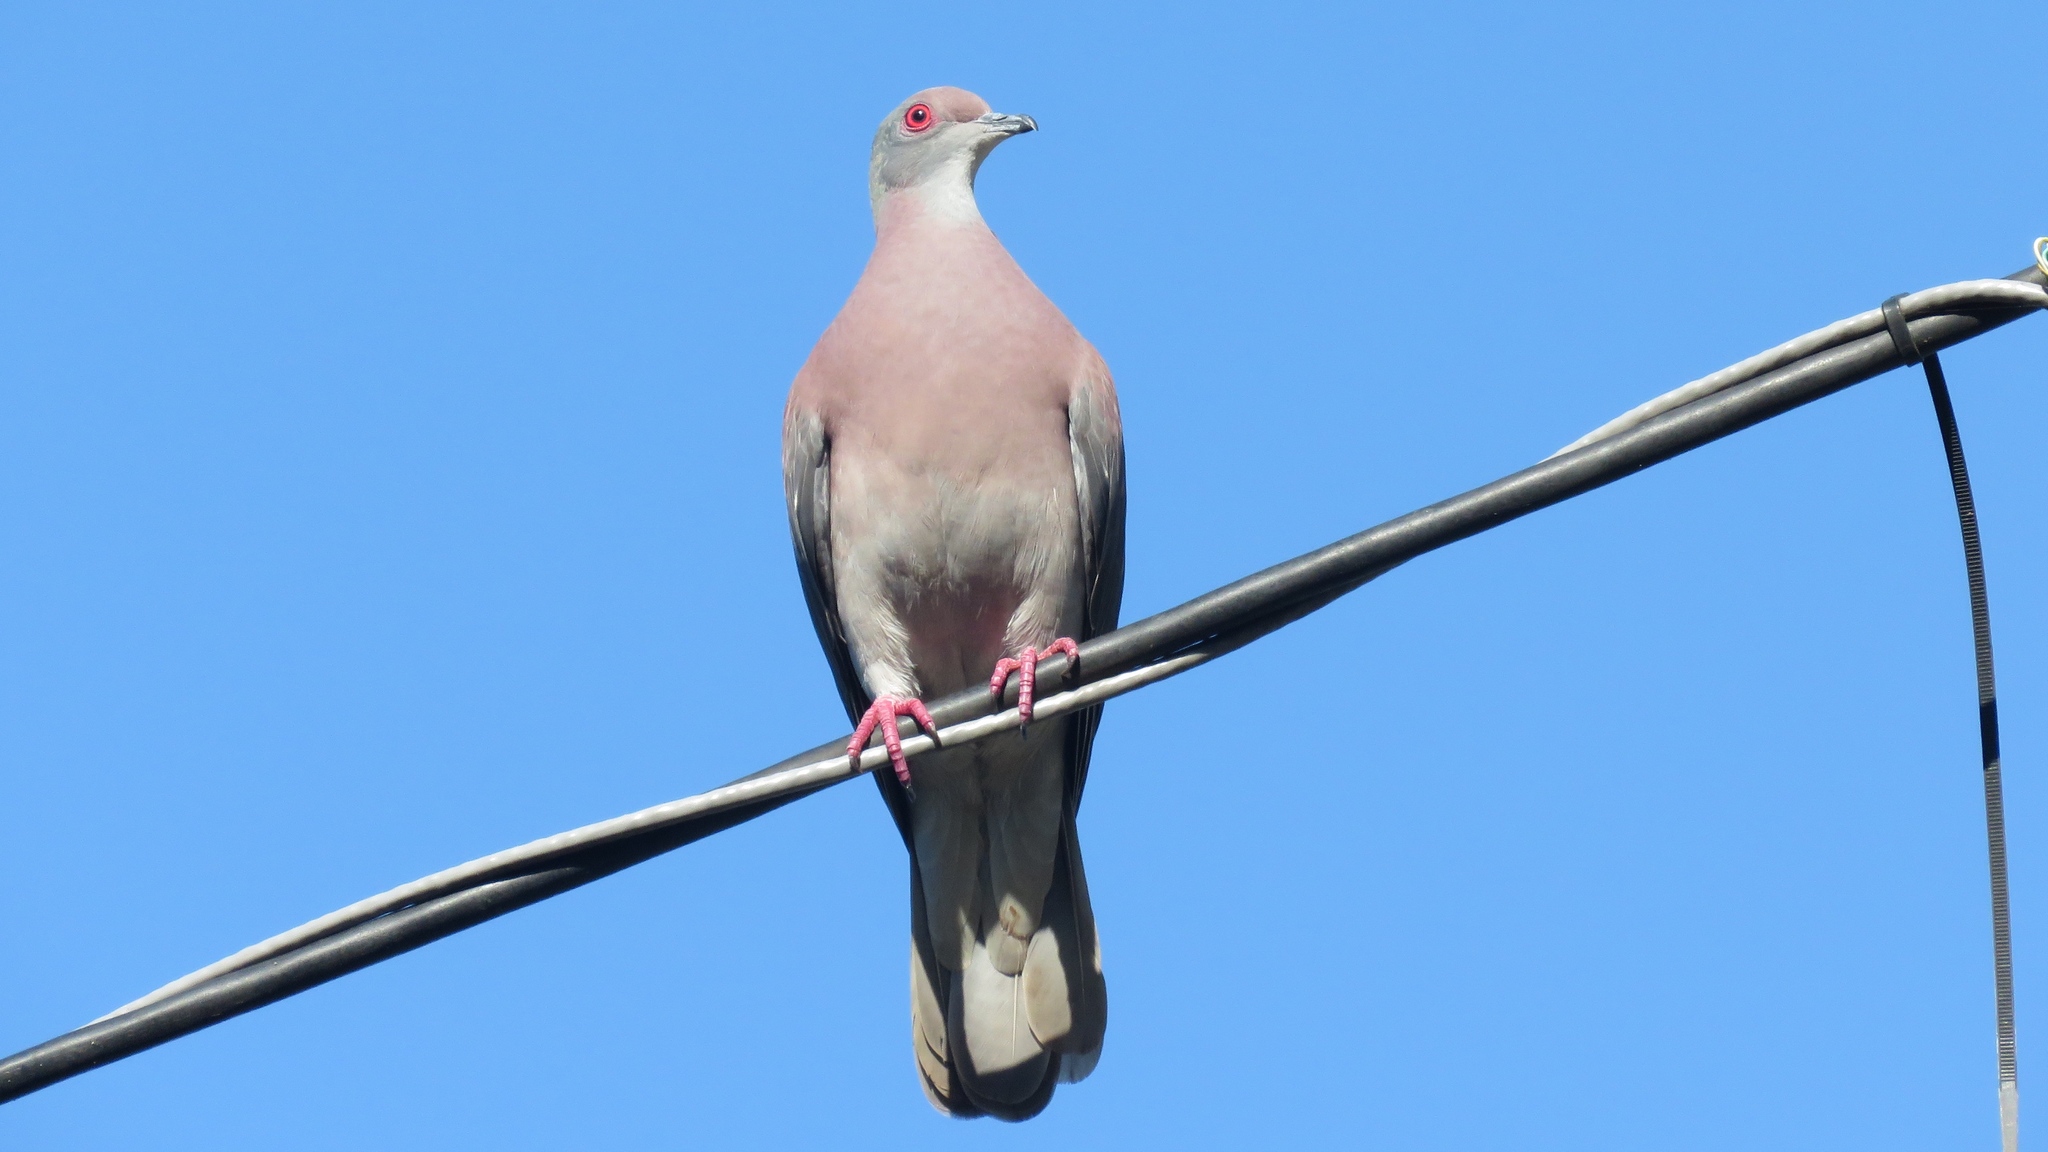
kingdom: Animalia
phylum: Chordata
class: Aves
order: Columbiformes
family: Columbidae
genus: Patagioenas
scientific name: Patagioenas cayennensis
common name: Pale-vented pigeon
